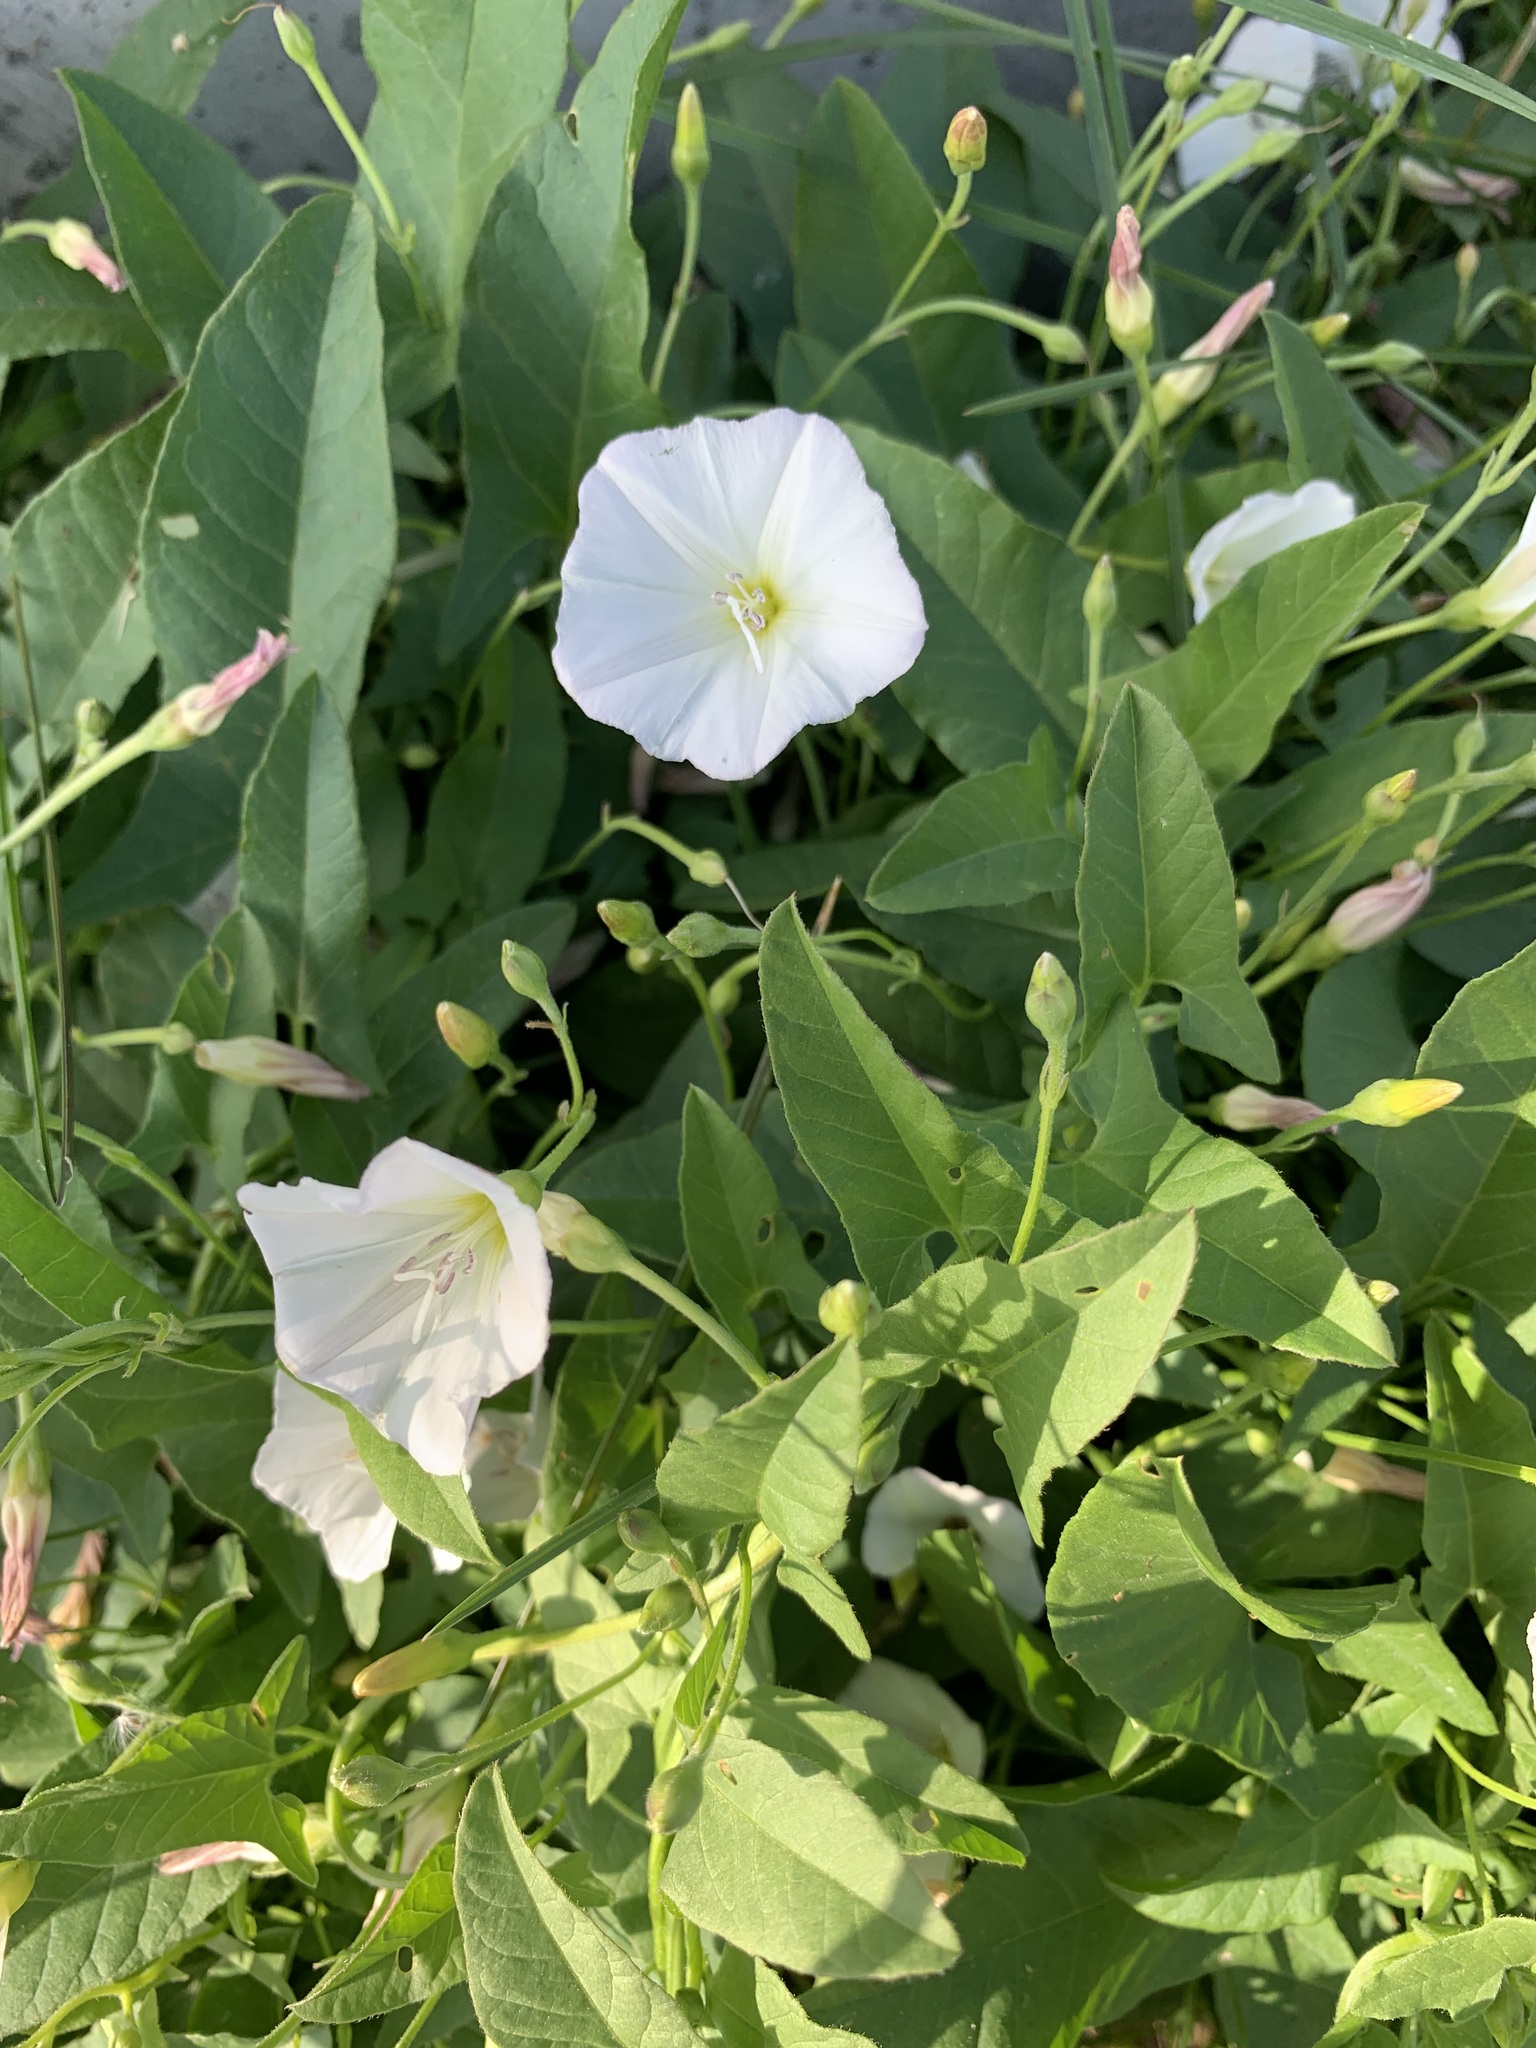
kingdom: Plantae
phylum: Tracheophyta
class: Magnoliopsida
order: Solanales
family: Convolvulaceae
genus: Convolvulus
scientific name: Convolvulus arvensis
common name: Field bindweed
